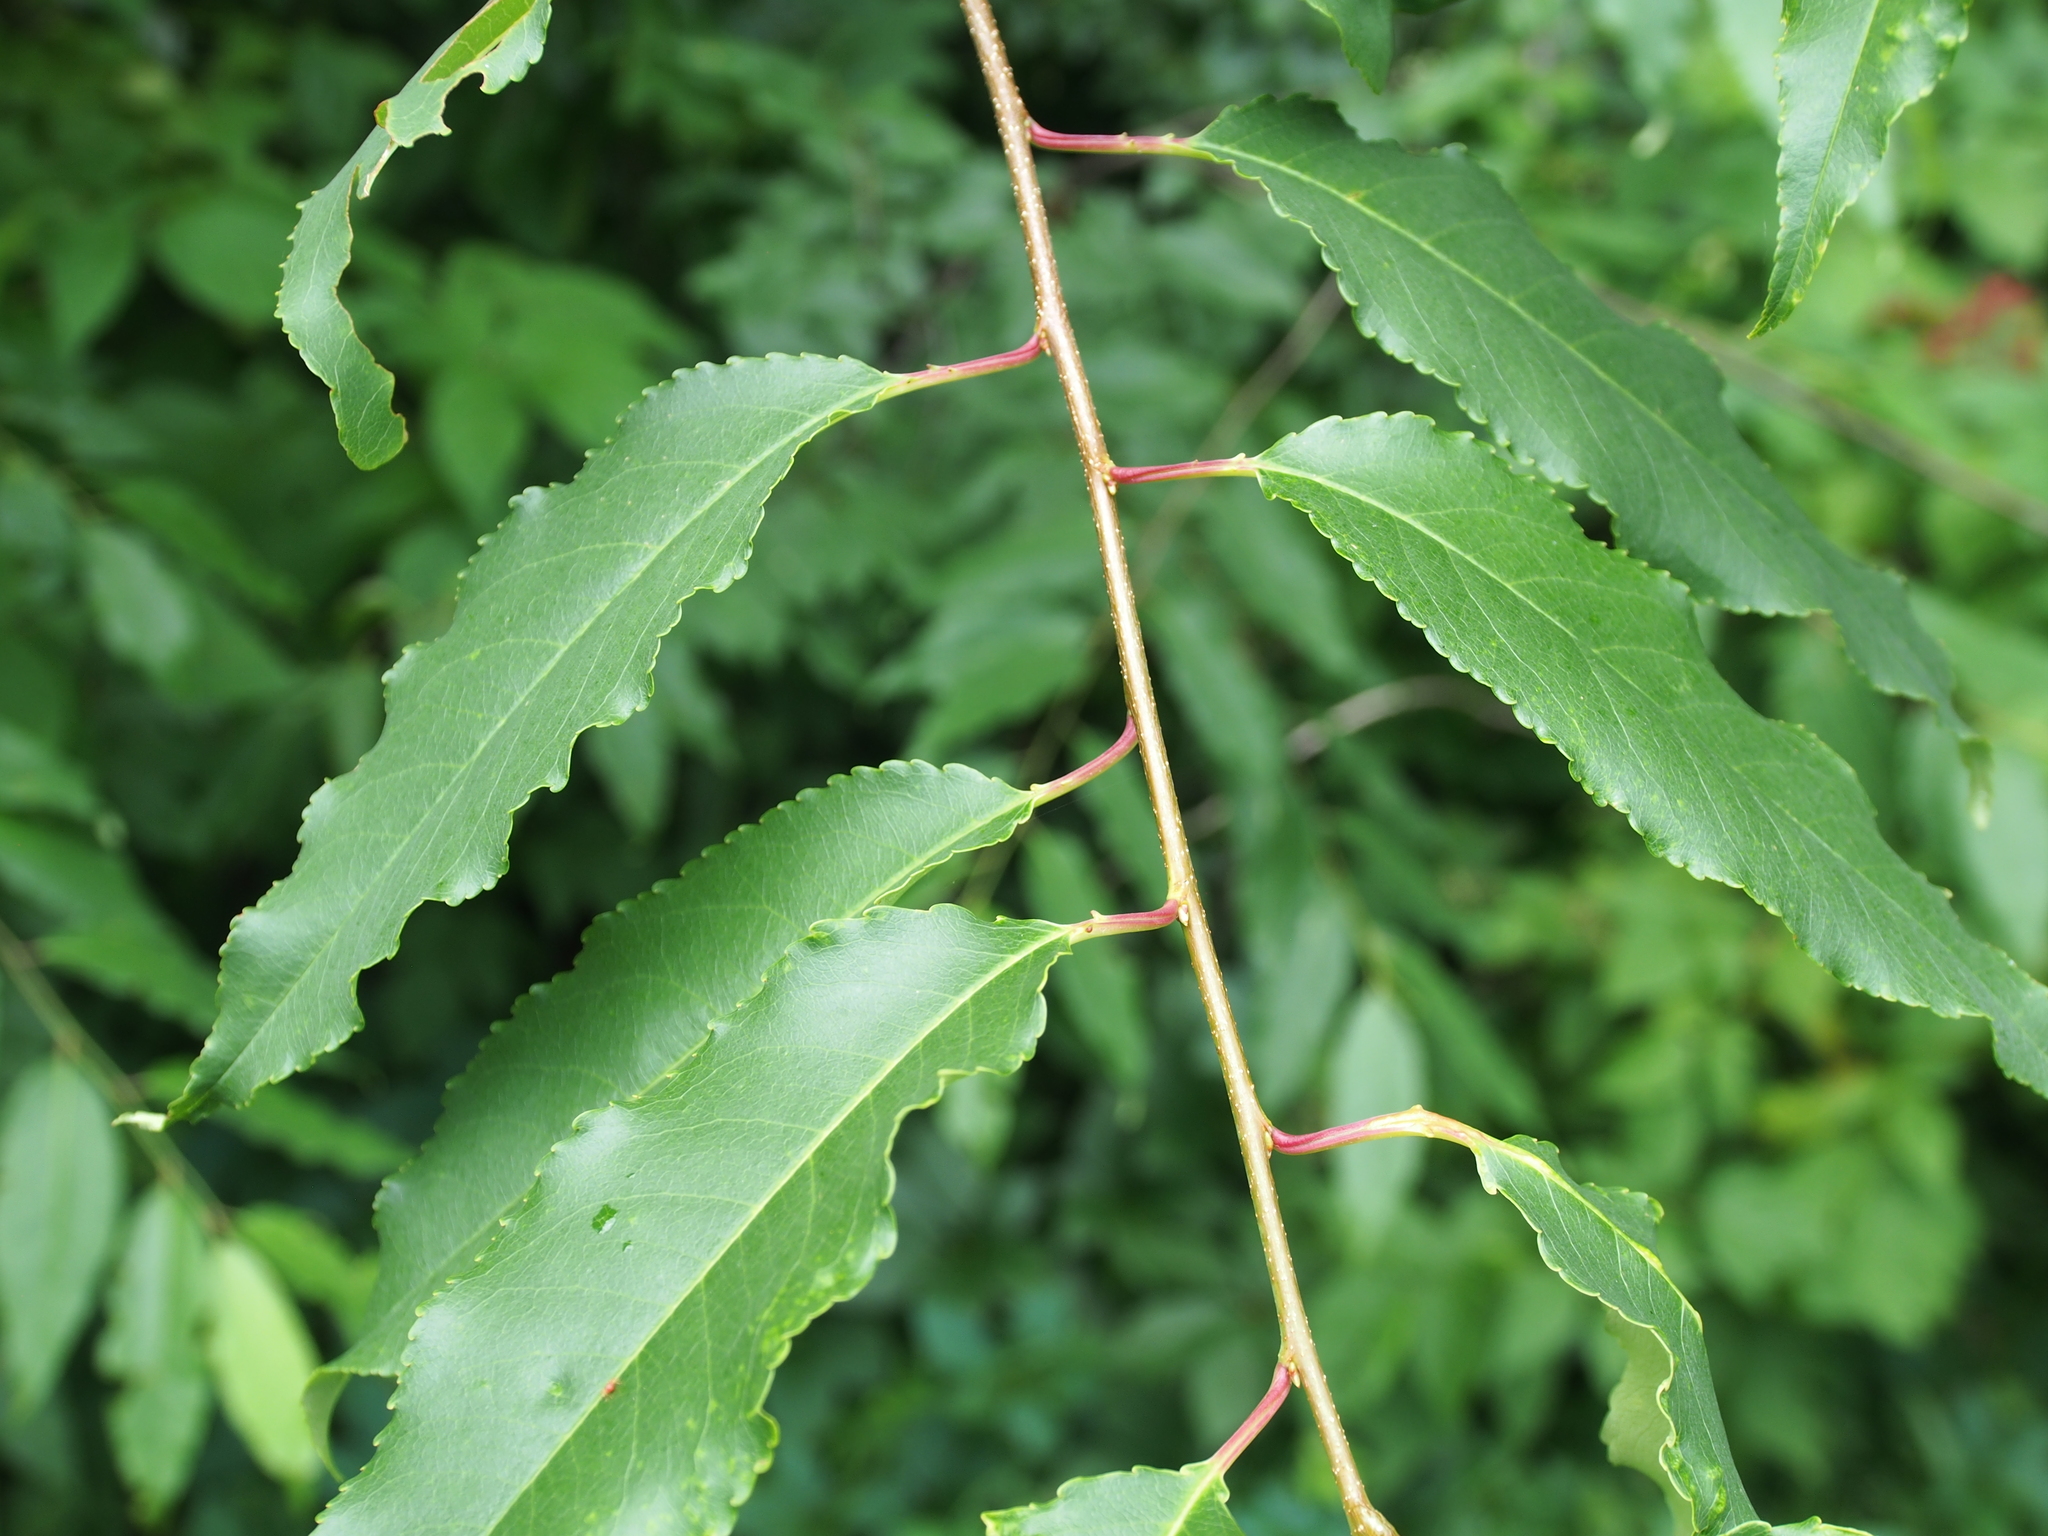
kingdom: Plantae
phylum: Tracheophyta
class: Magnoliopsida
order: Rosales
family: Rosaceae
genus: Prunus
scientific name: Prunus serotina
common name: Black cherry
